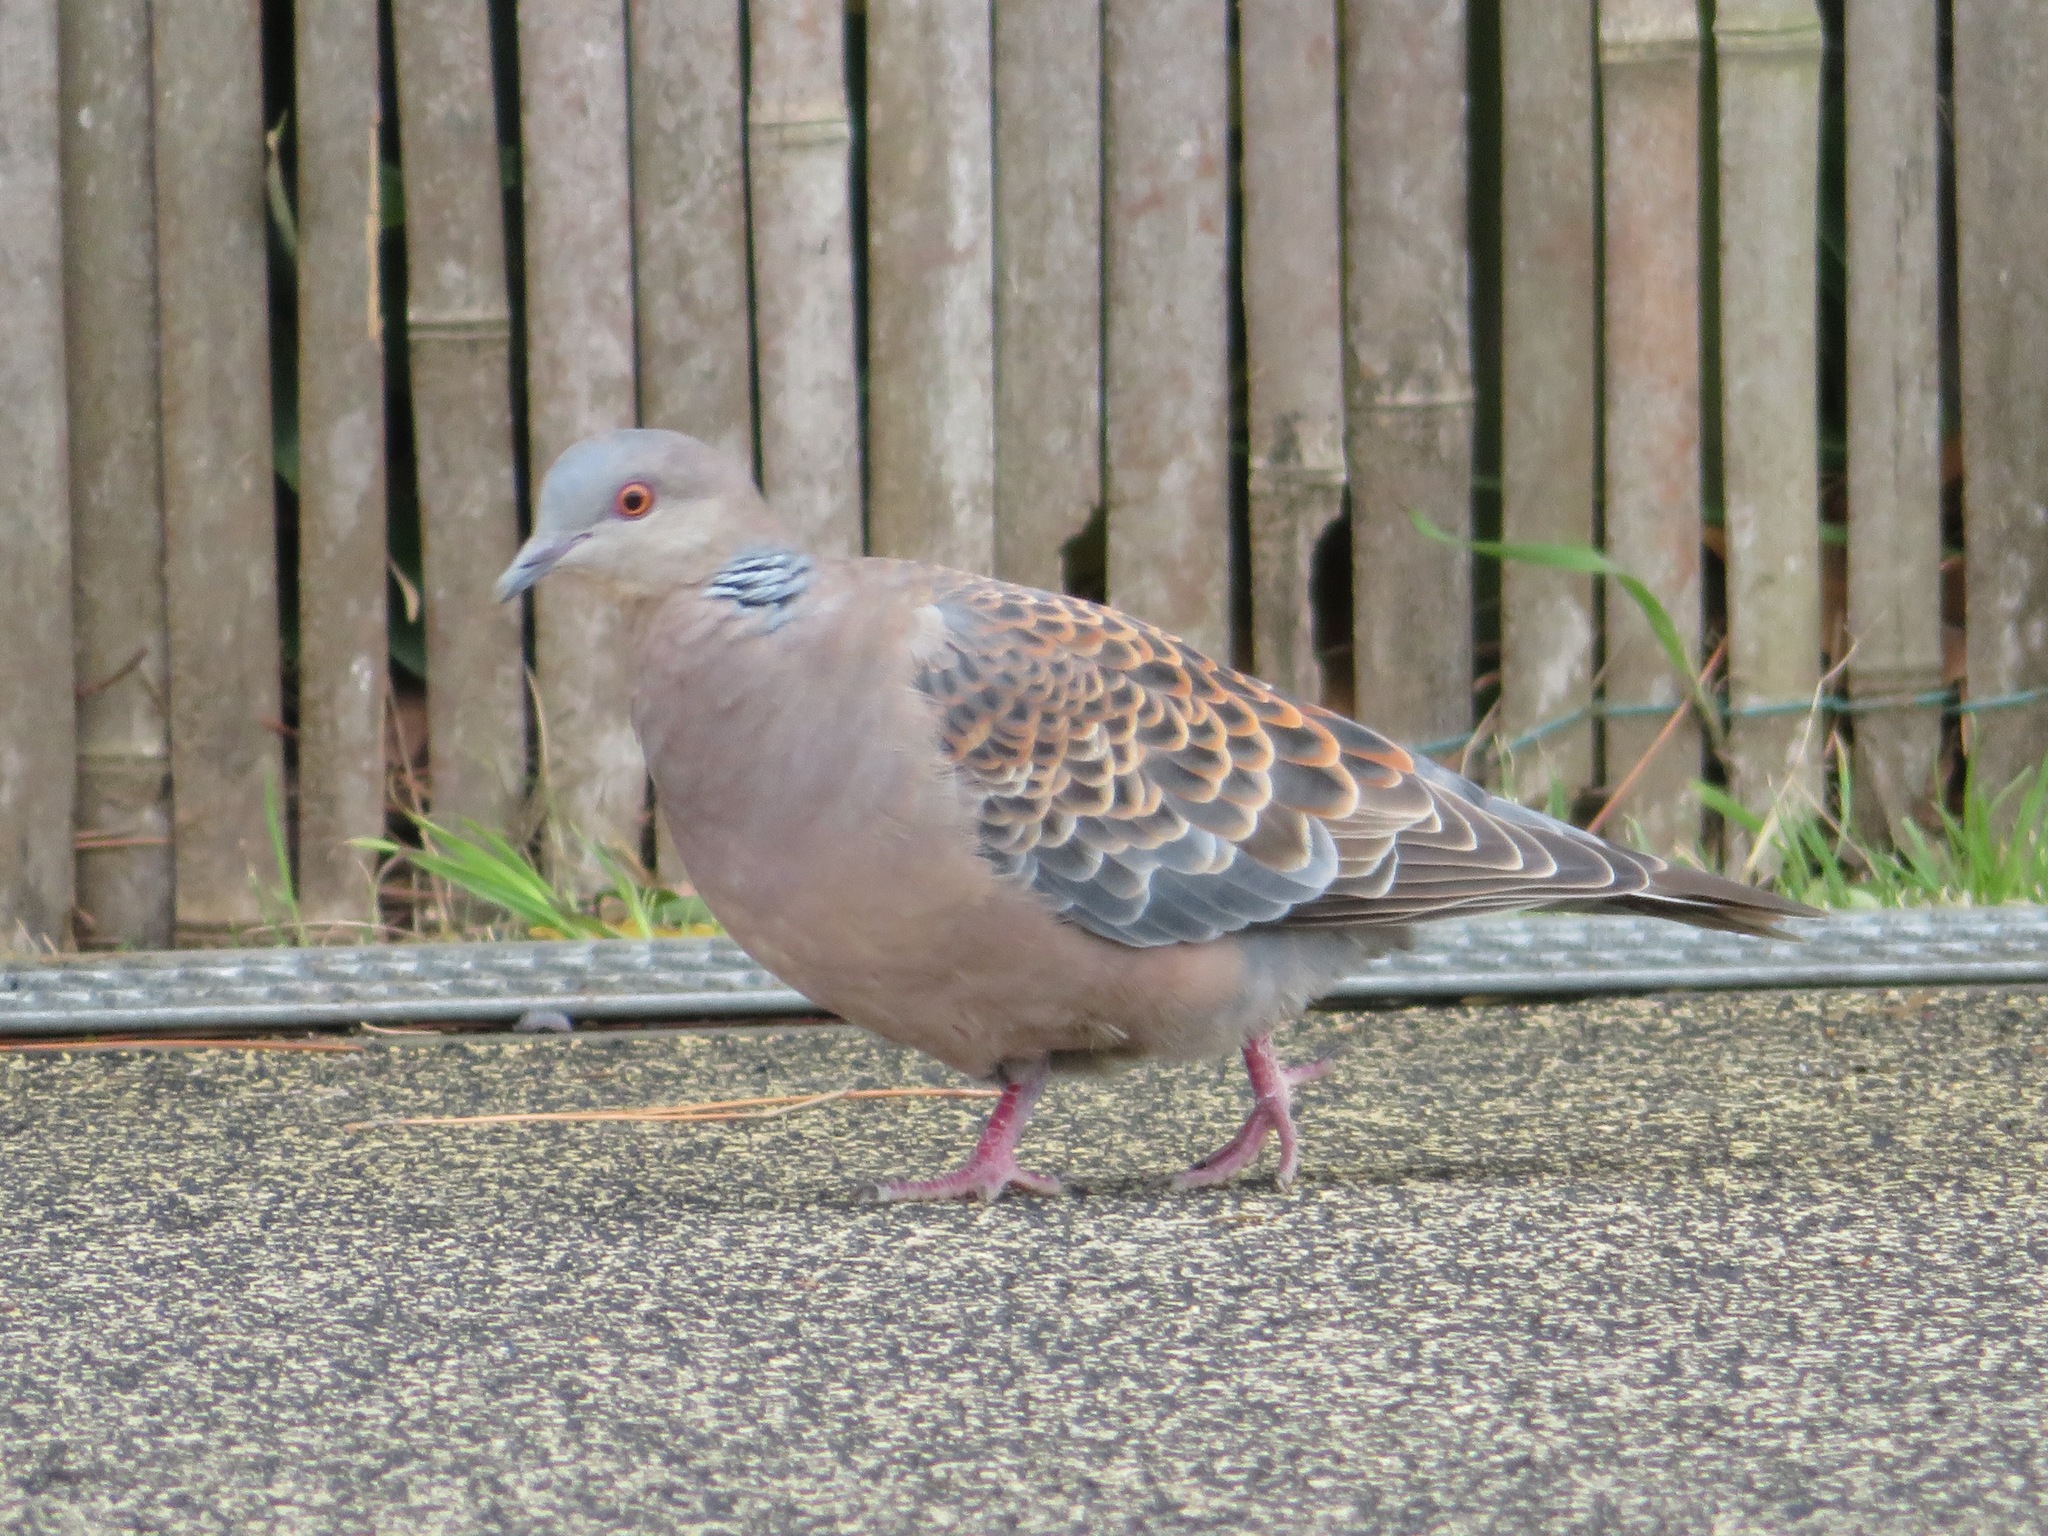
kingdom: Animalia
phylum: Chordata
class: Aves
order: Columbiformes
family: Columbidae
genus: Streptopelia
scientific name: Streptopelia orientalis
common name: Oriental turtle dove
